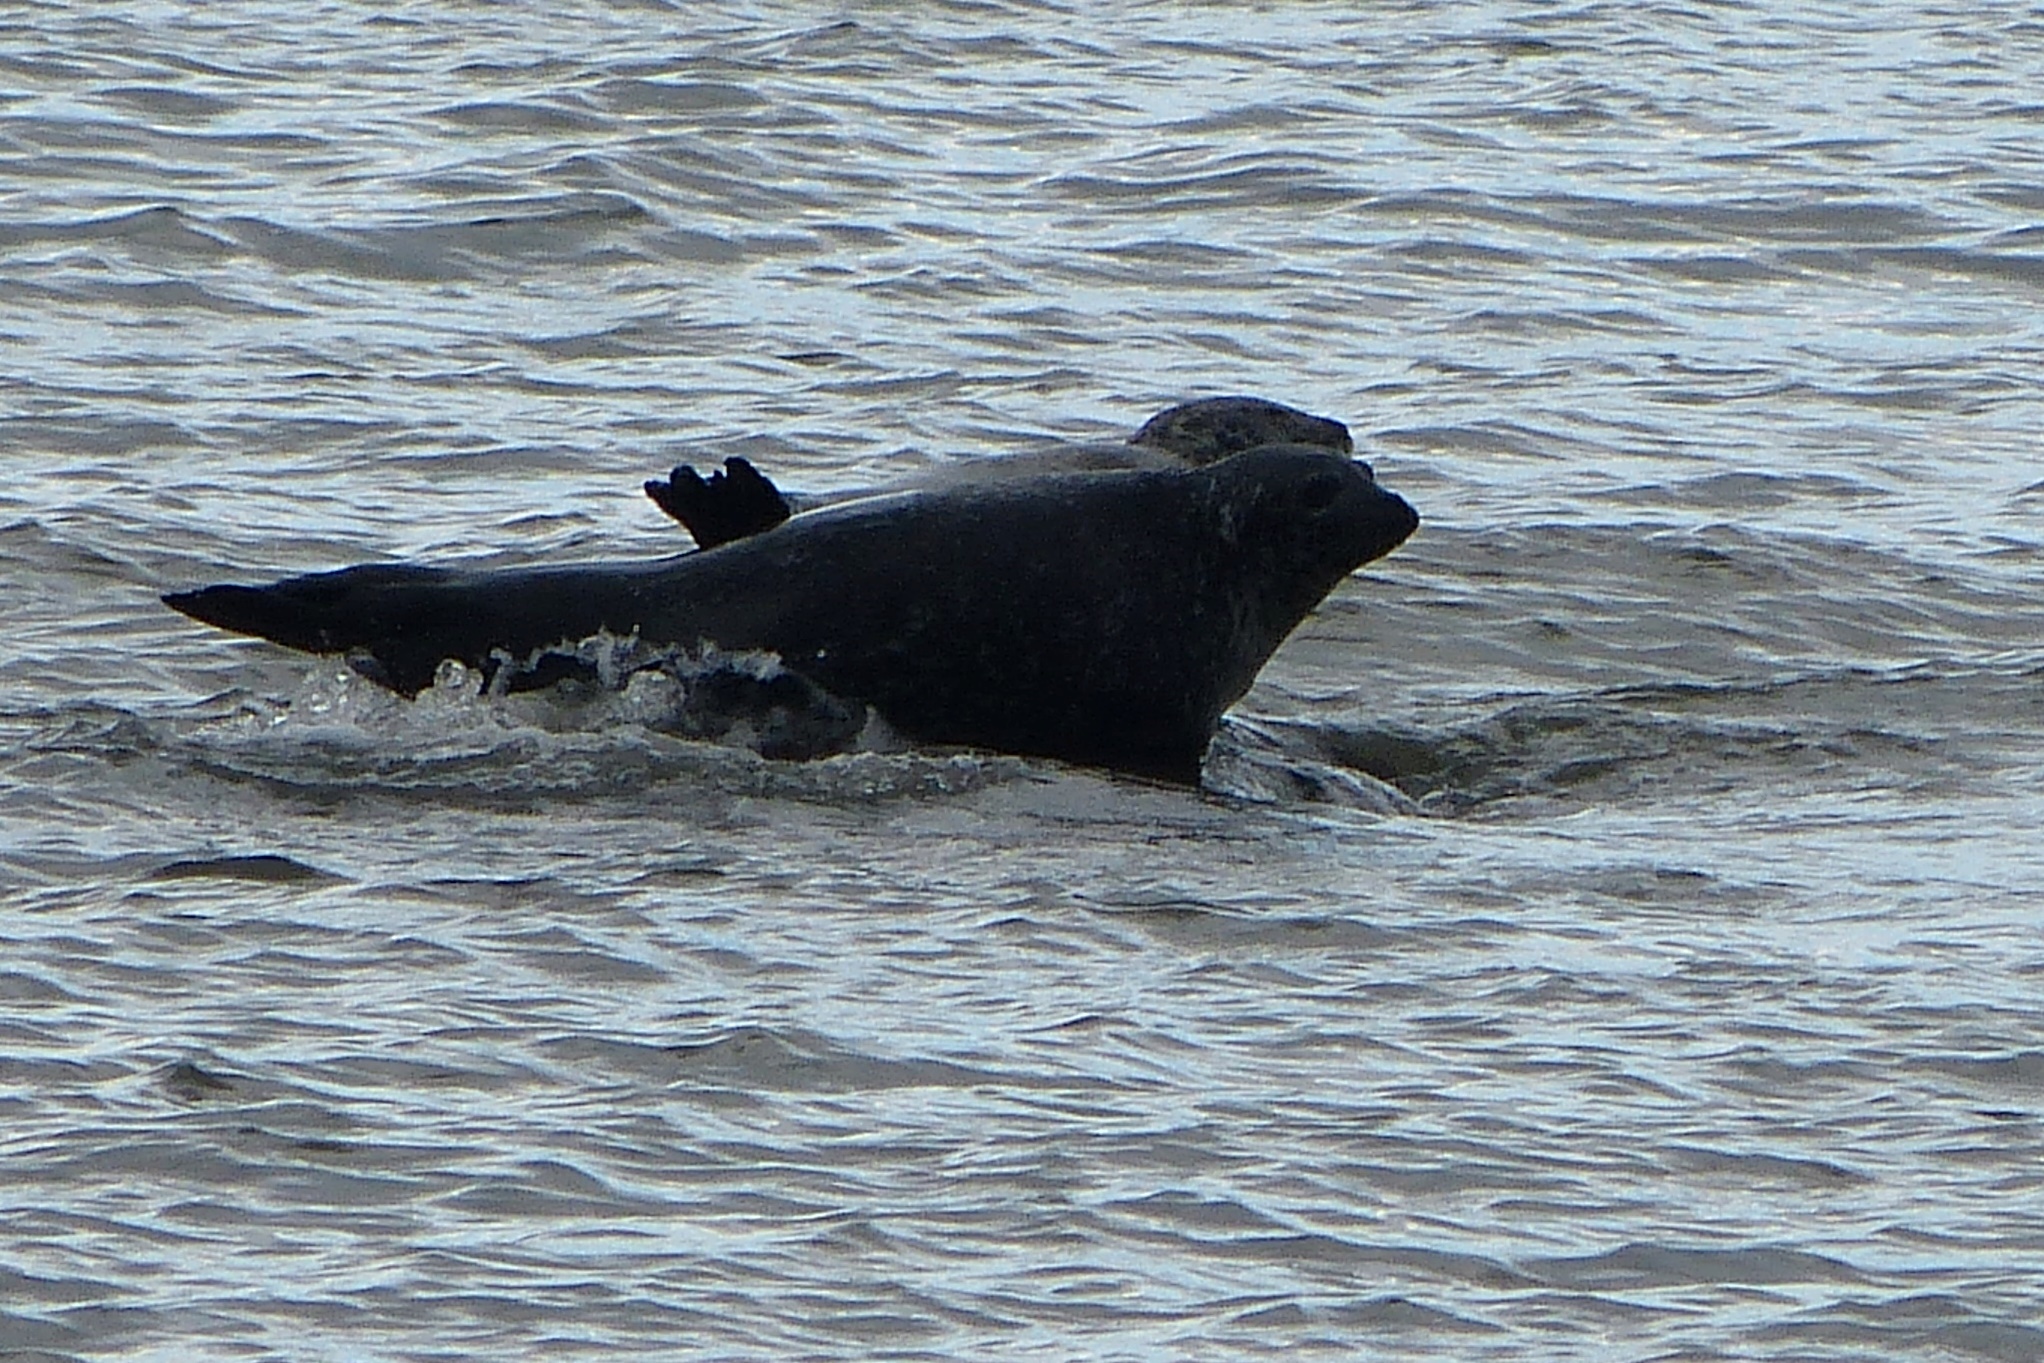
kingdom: Animalia
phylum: Chordata
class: Mammalia
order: Carnivora
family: Phocidae
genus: Phoca
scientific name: Phoca vitulina
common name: Harbor seal
